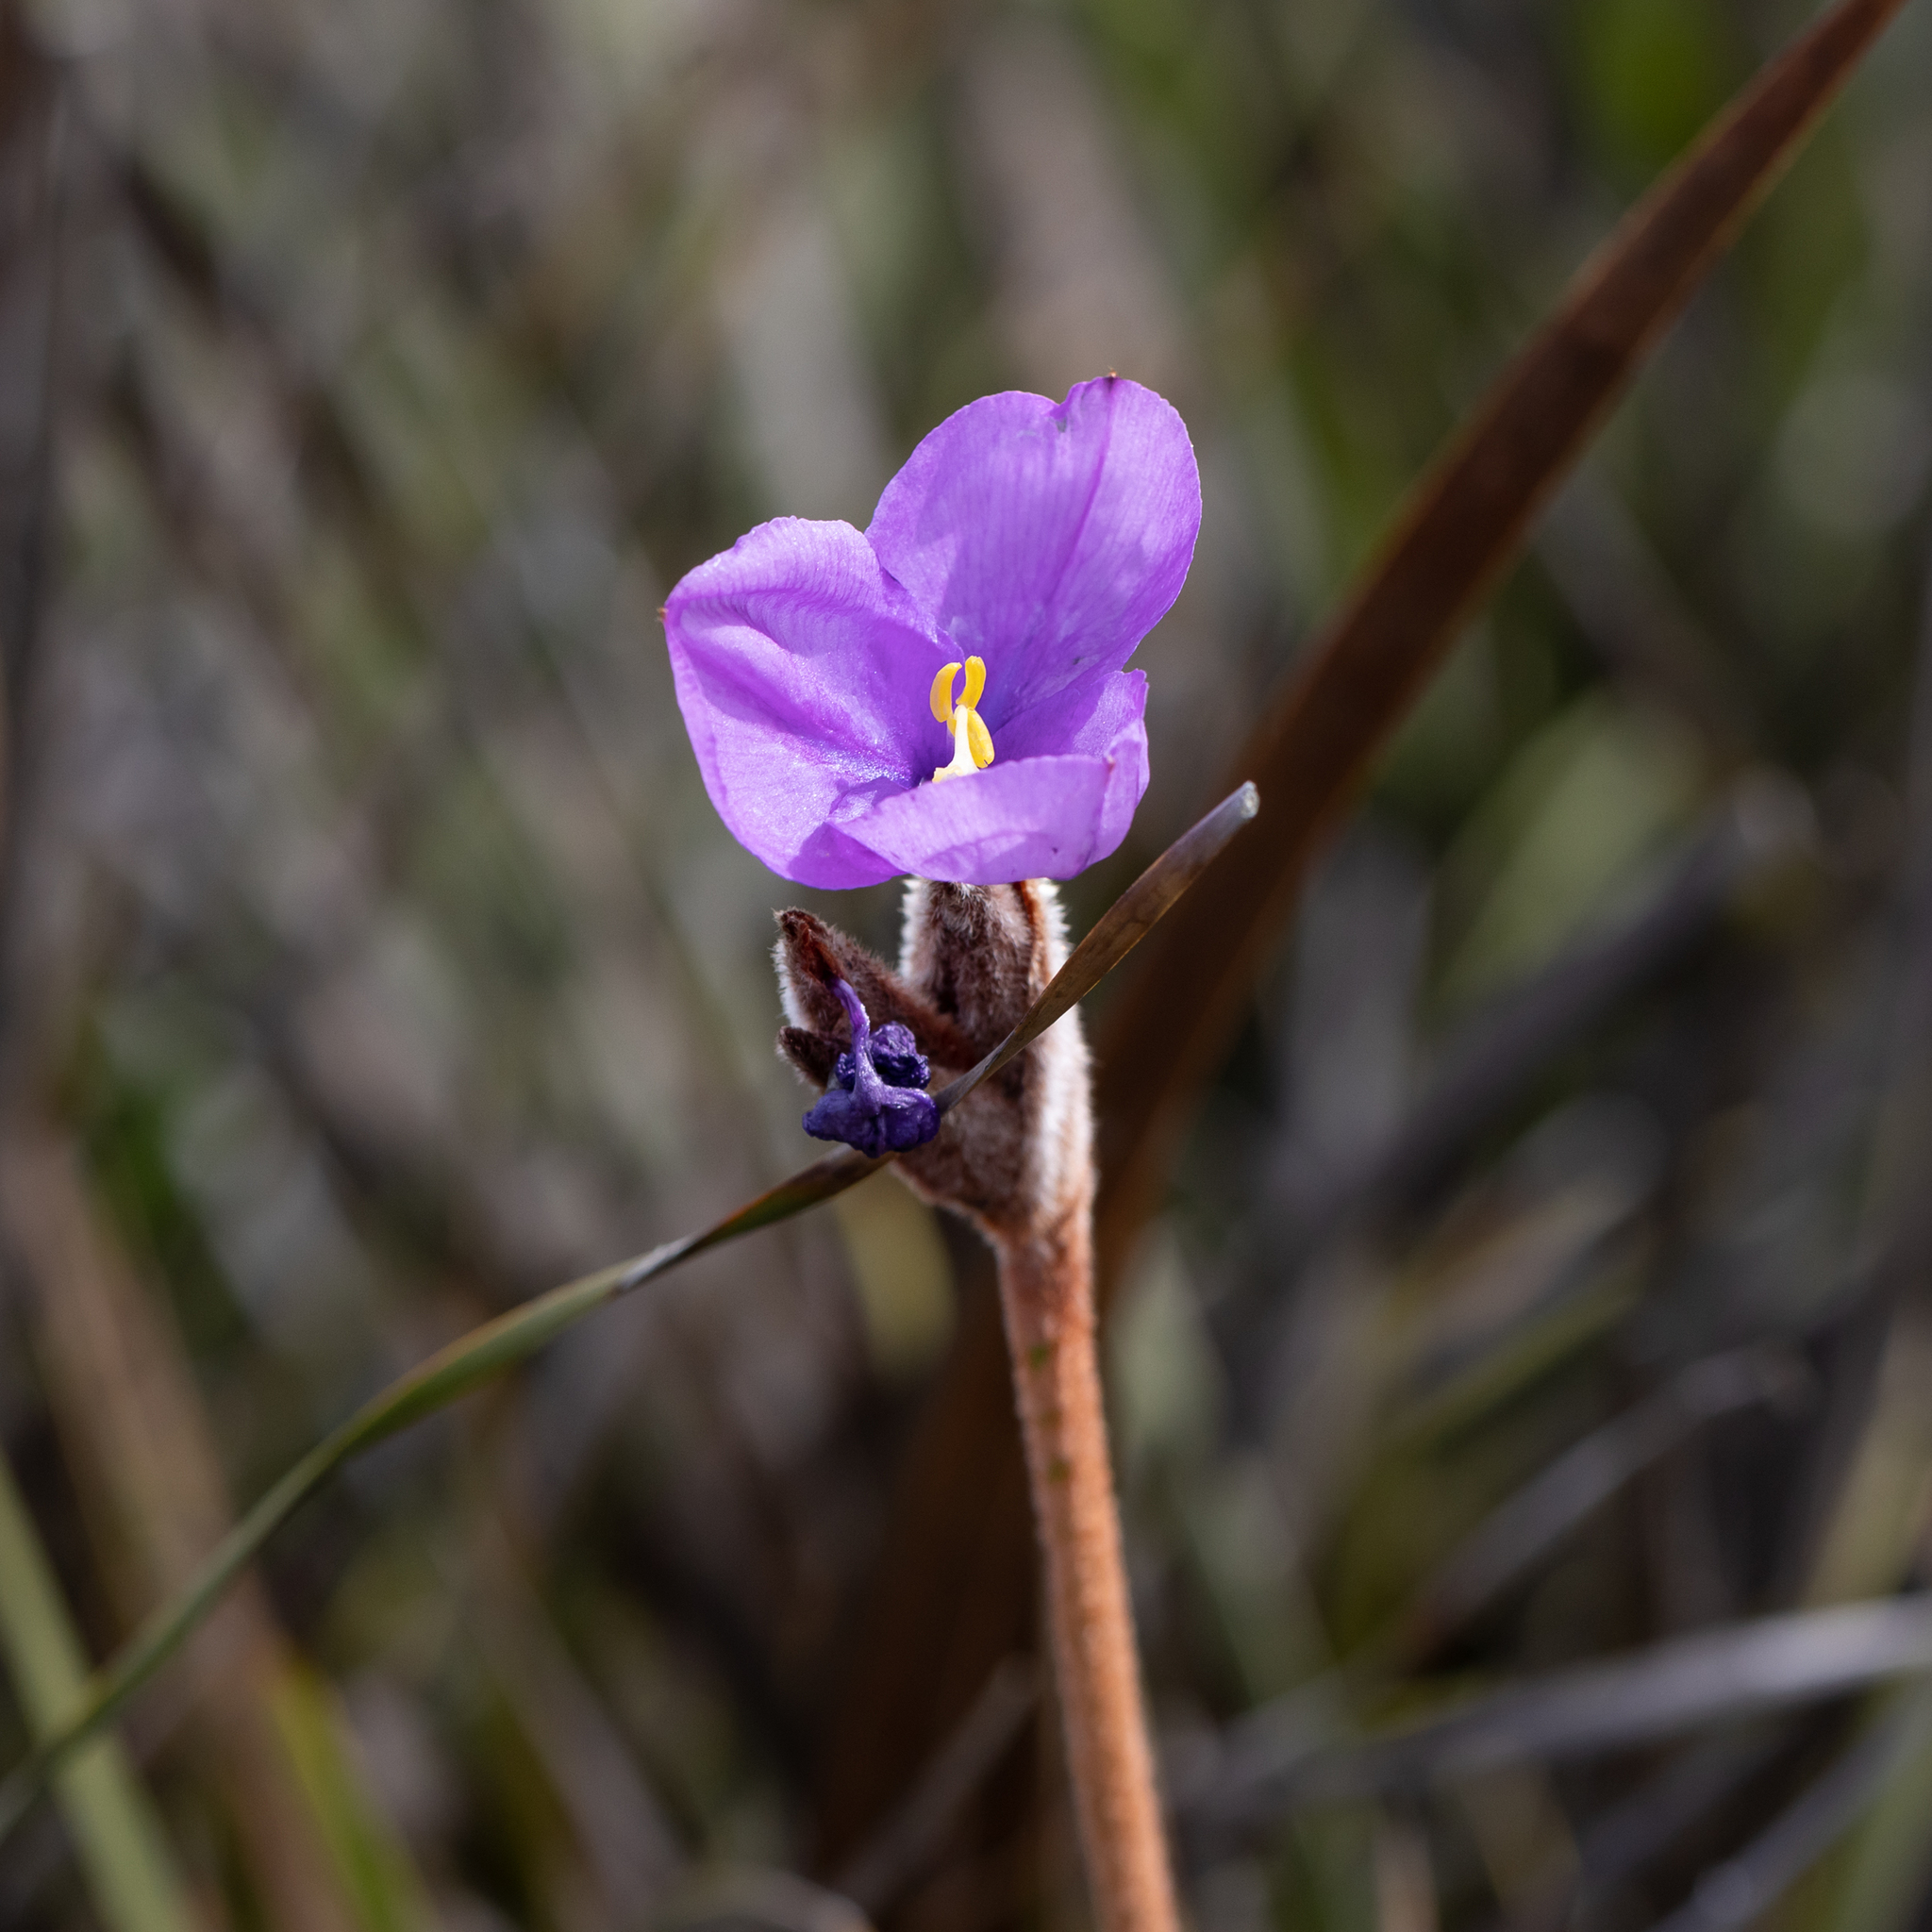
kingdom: Plantae
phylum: Tracheophyta
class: Liliopsida
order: Asparagales
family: Iridaceae
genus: Patersonia
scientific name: Patersonia lanata
